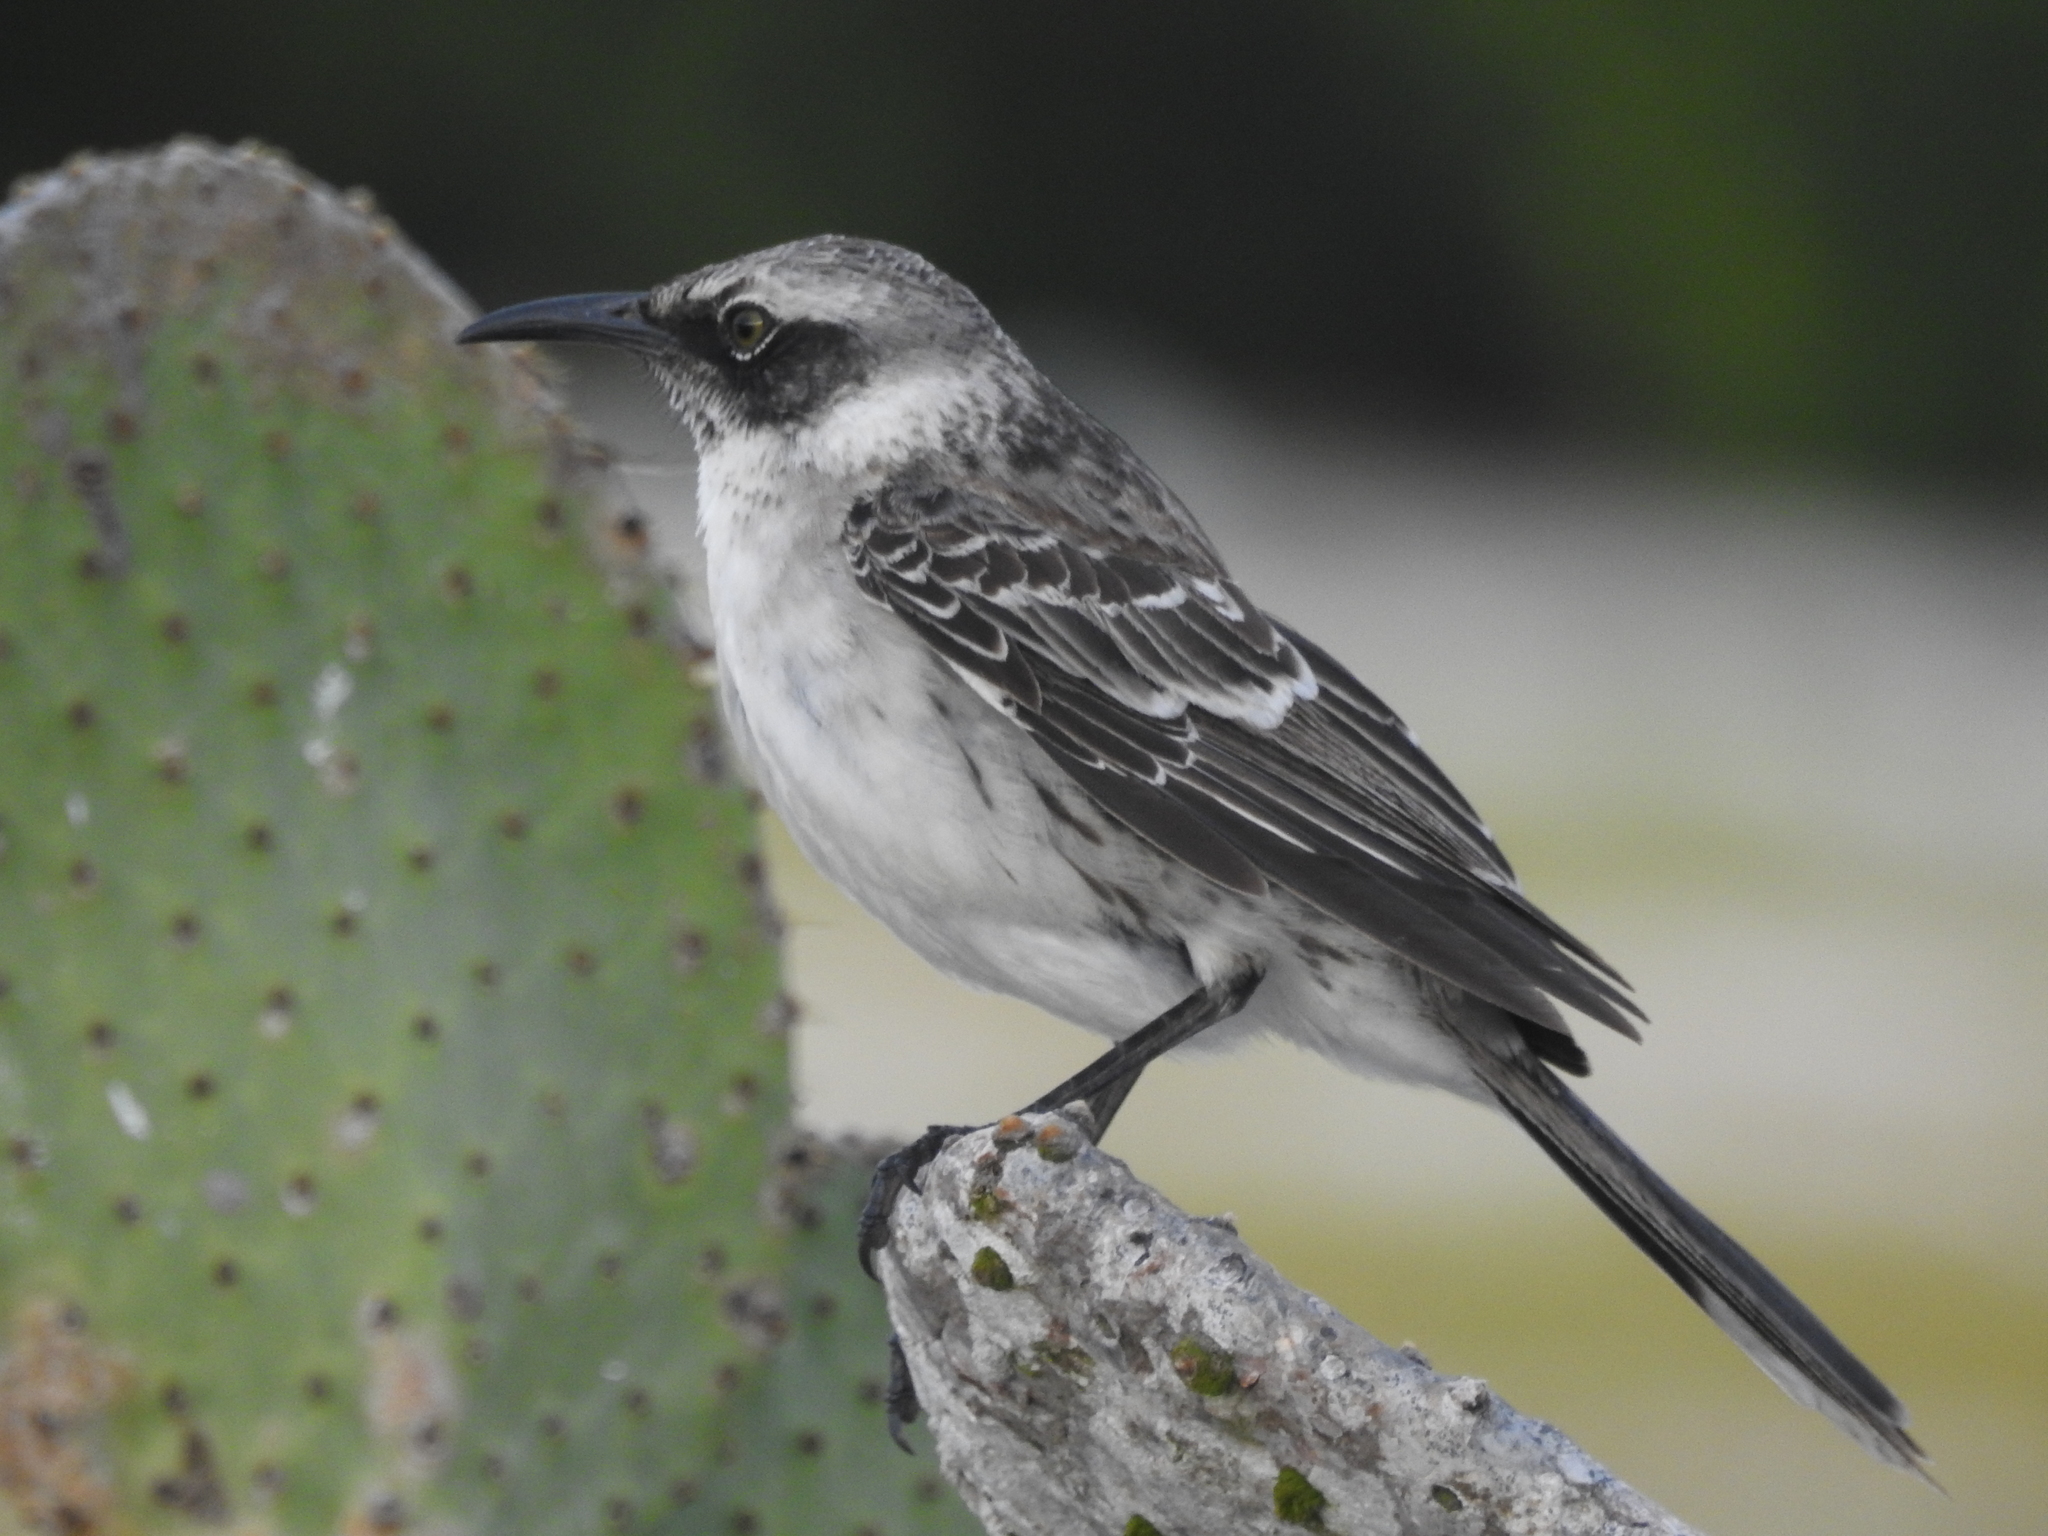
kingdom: Animalia
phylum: Chordata
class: Aves
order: Passeriformes
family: Mimidae
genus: Mimus
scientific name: Mimus parvulus
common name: Galapagos mockingbird
